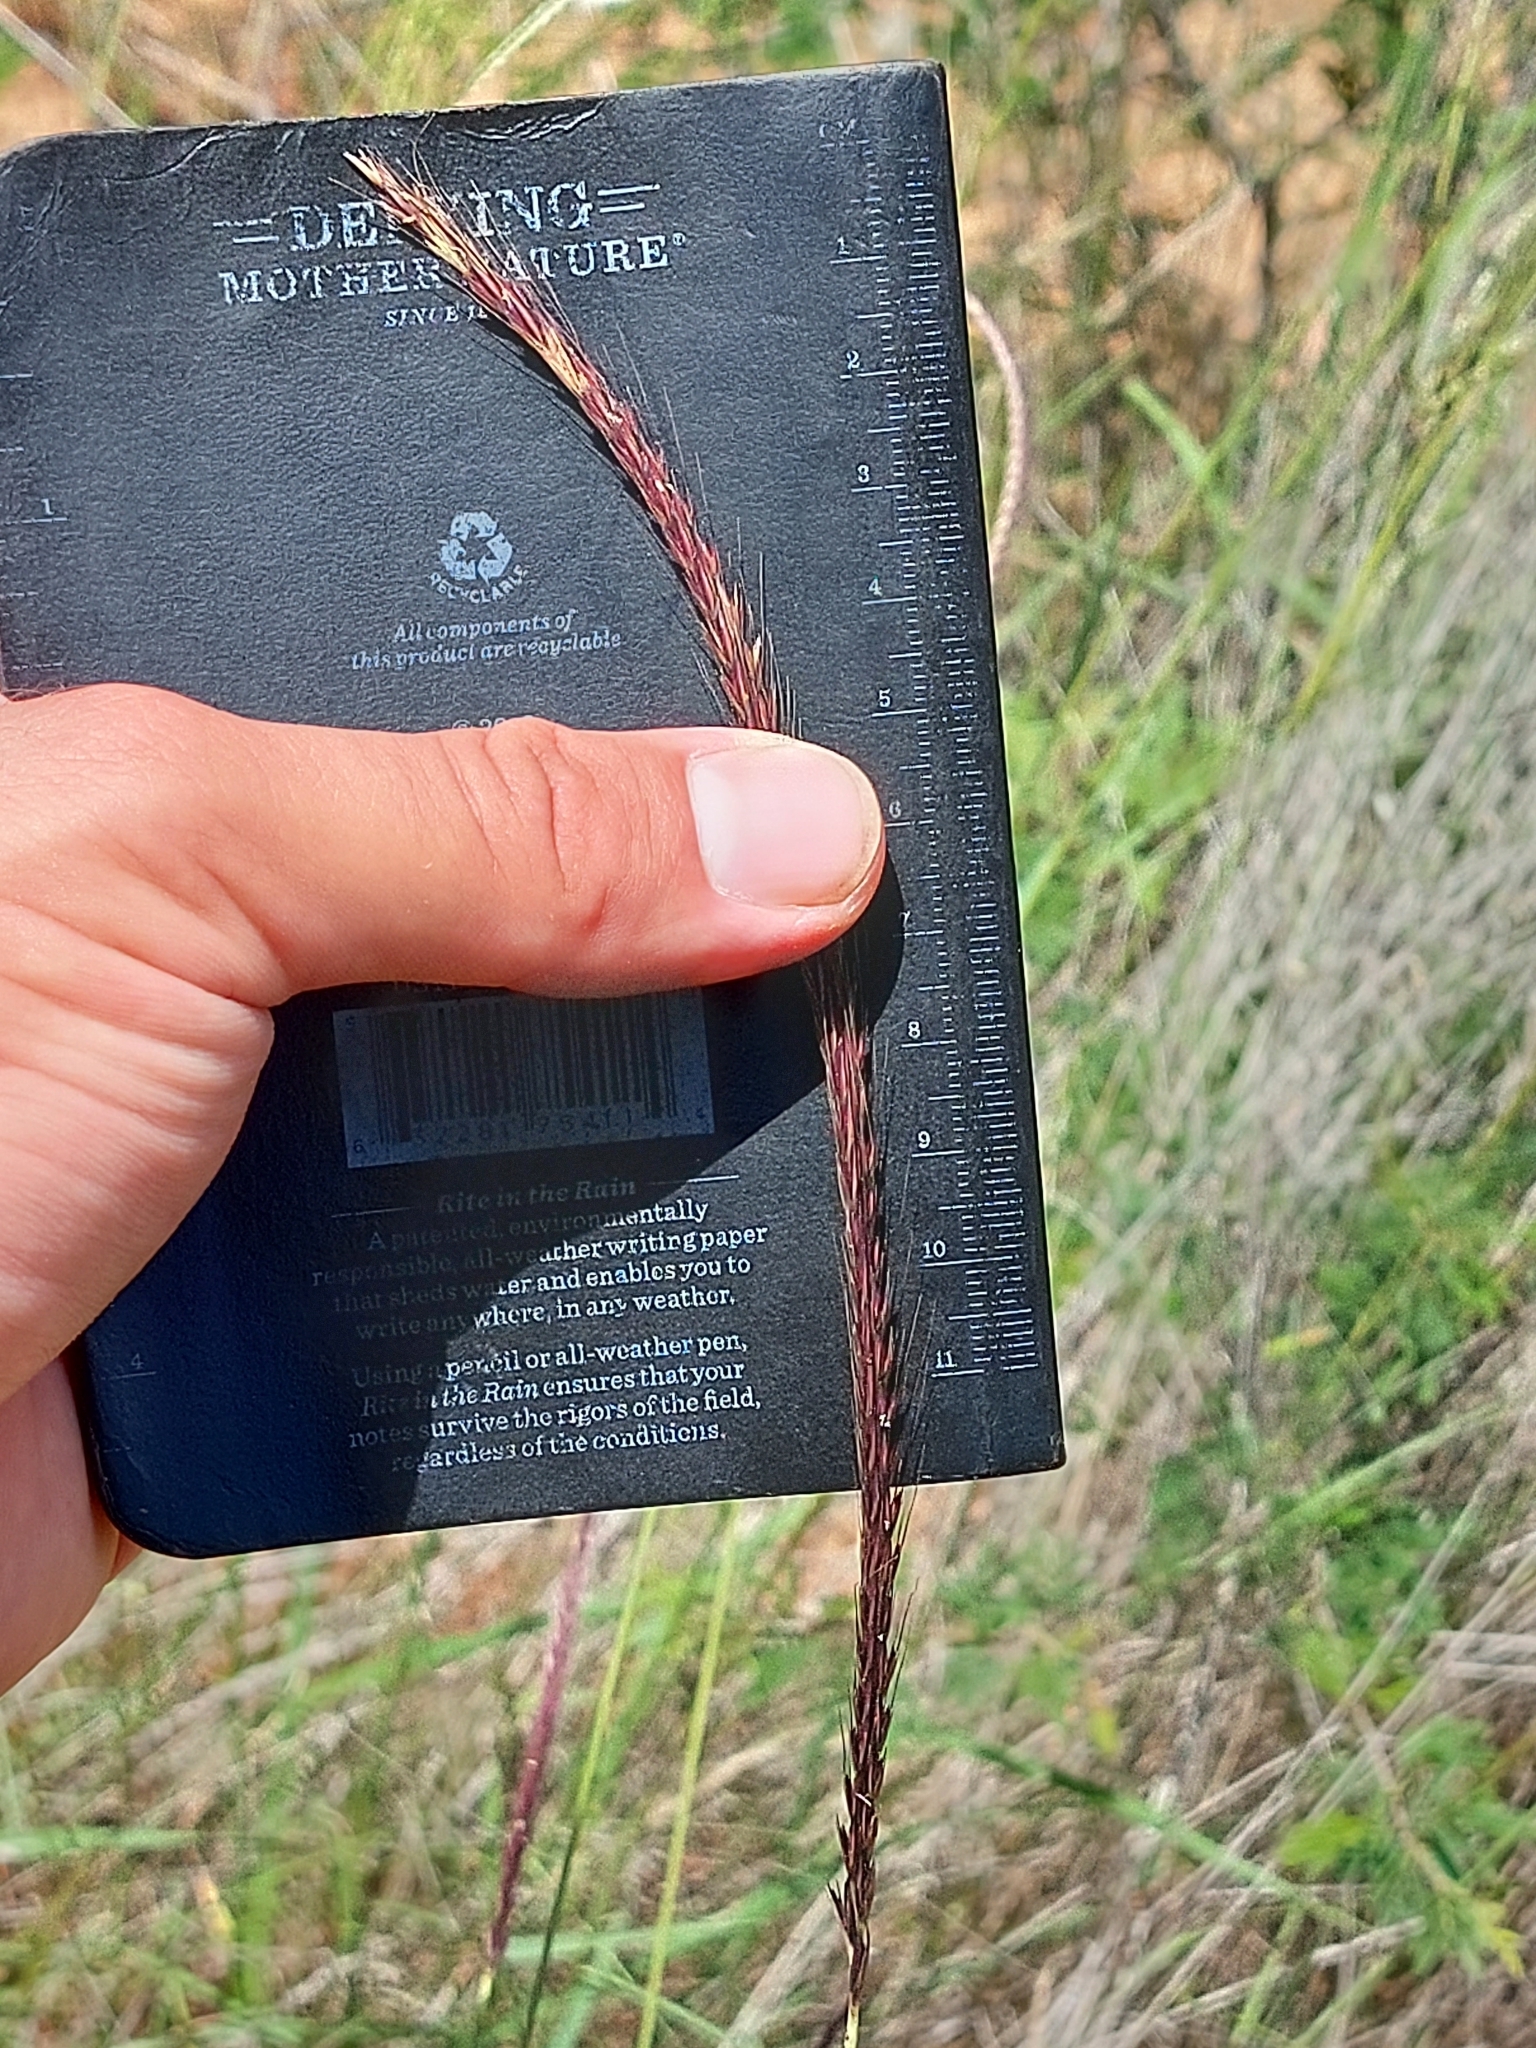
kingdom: Plantae
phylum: Tracheophyta
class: Liliopsida
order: Poales
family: Poaceae
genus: Enteropogon
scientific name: Enteropogon macrostachyus
